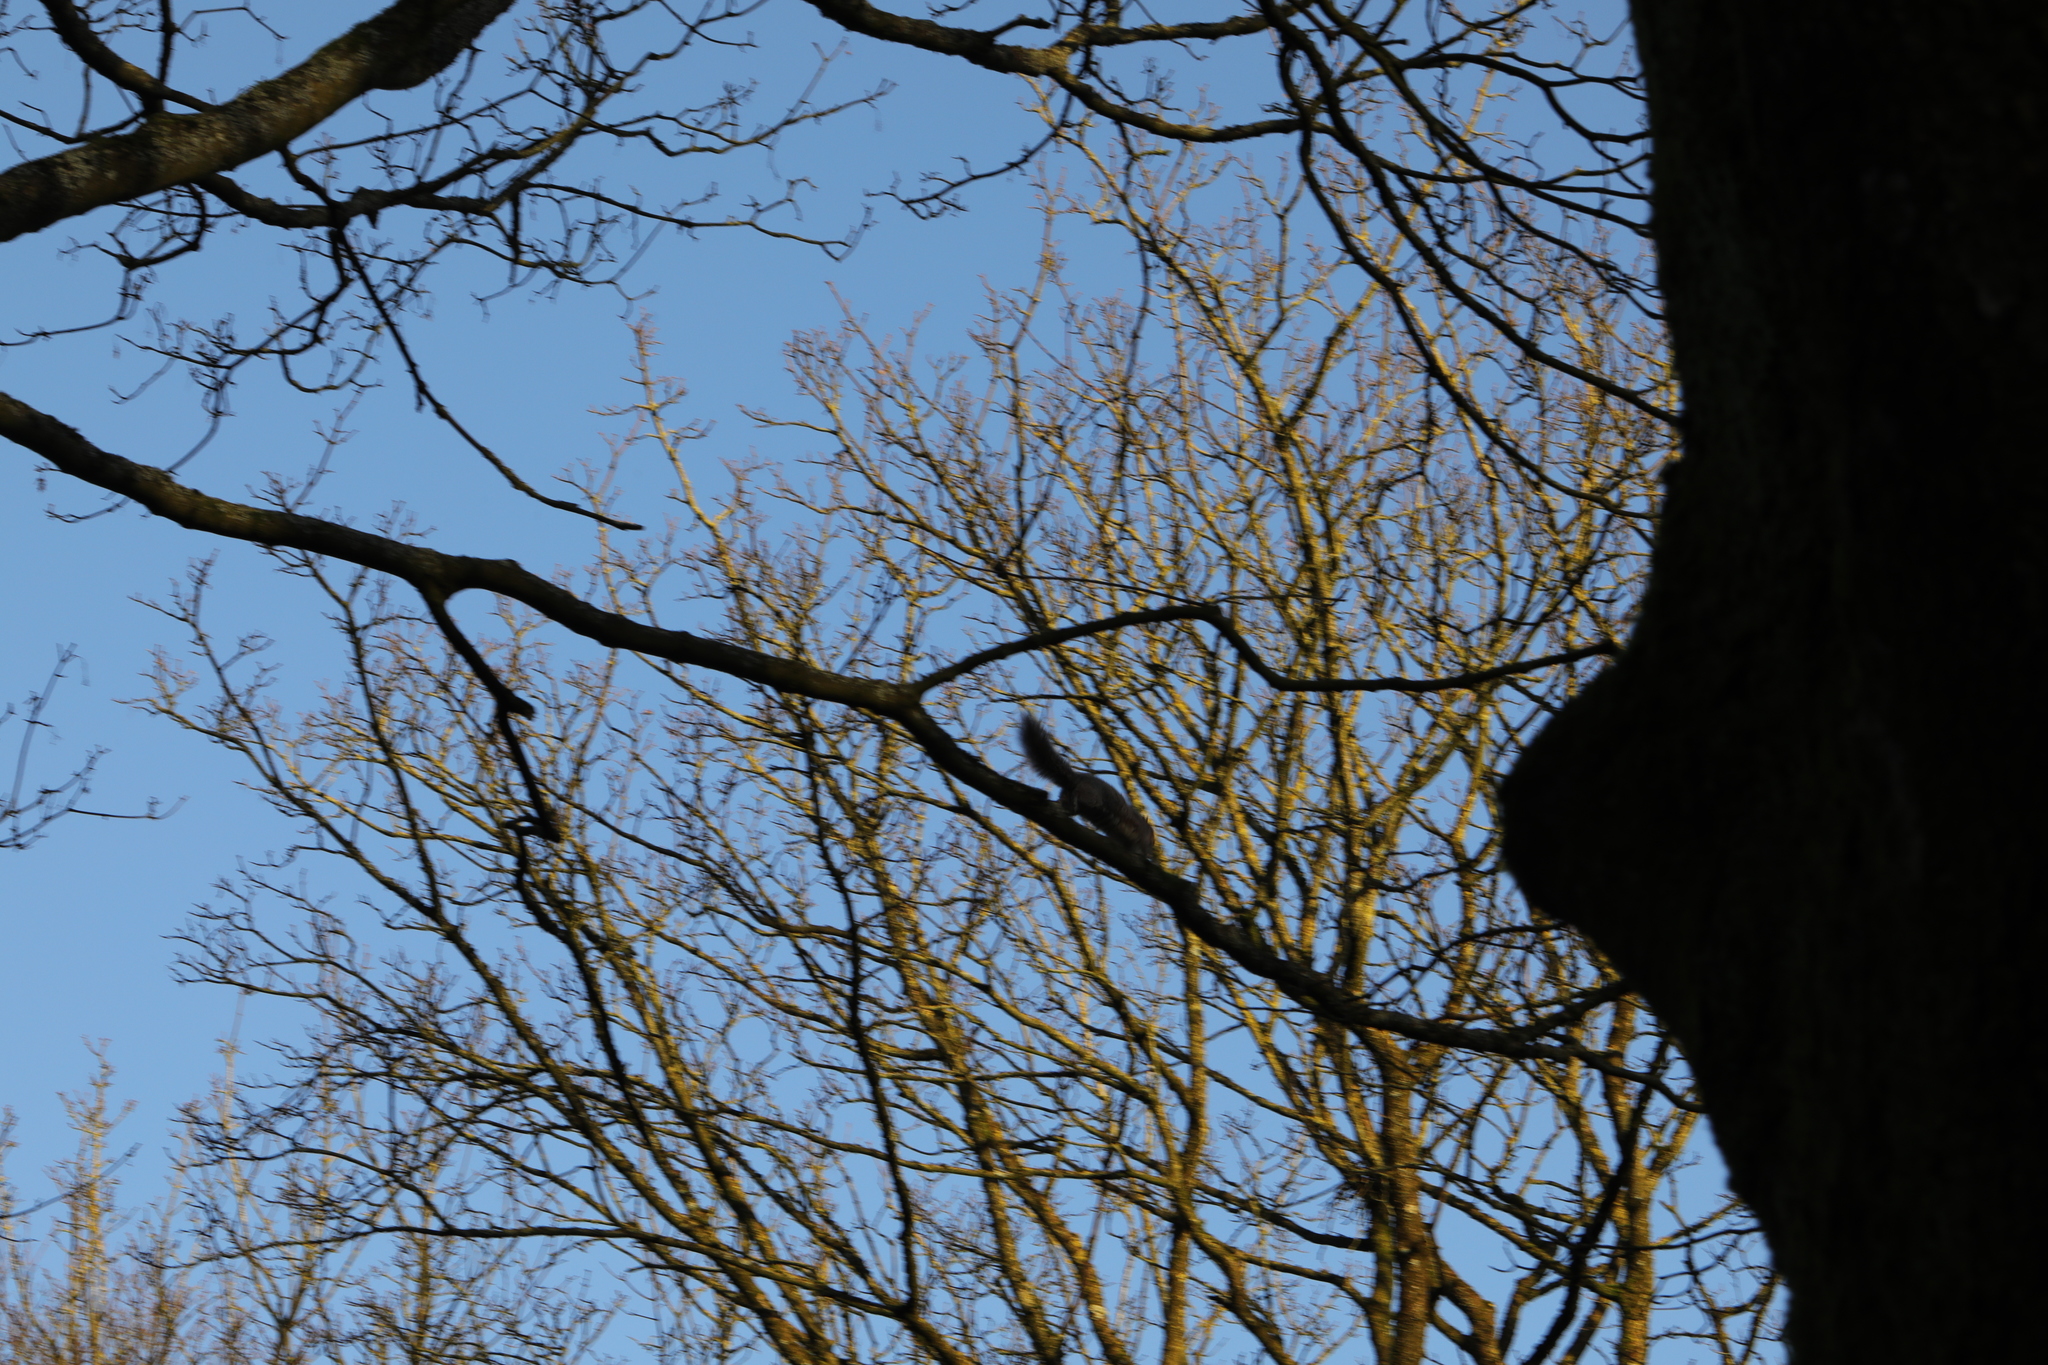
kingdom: Animalia
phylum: Chordata
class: Mammalia
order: Rodentia
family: Sciuridae
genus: Sciurus
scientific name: Sciurus carolinensis
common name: Eastern gray squirrel
